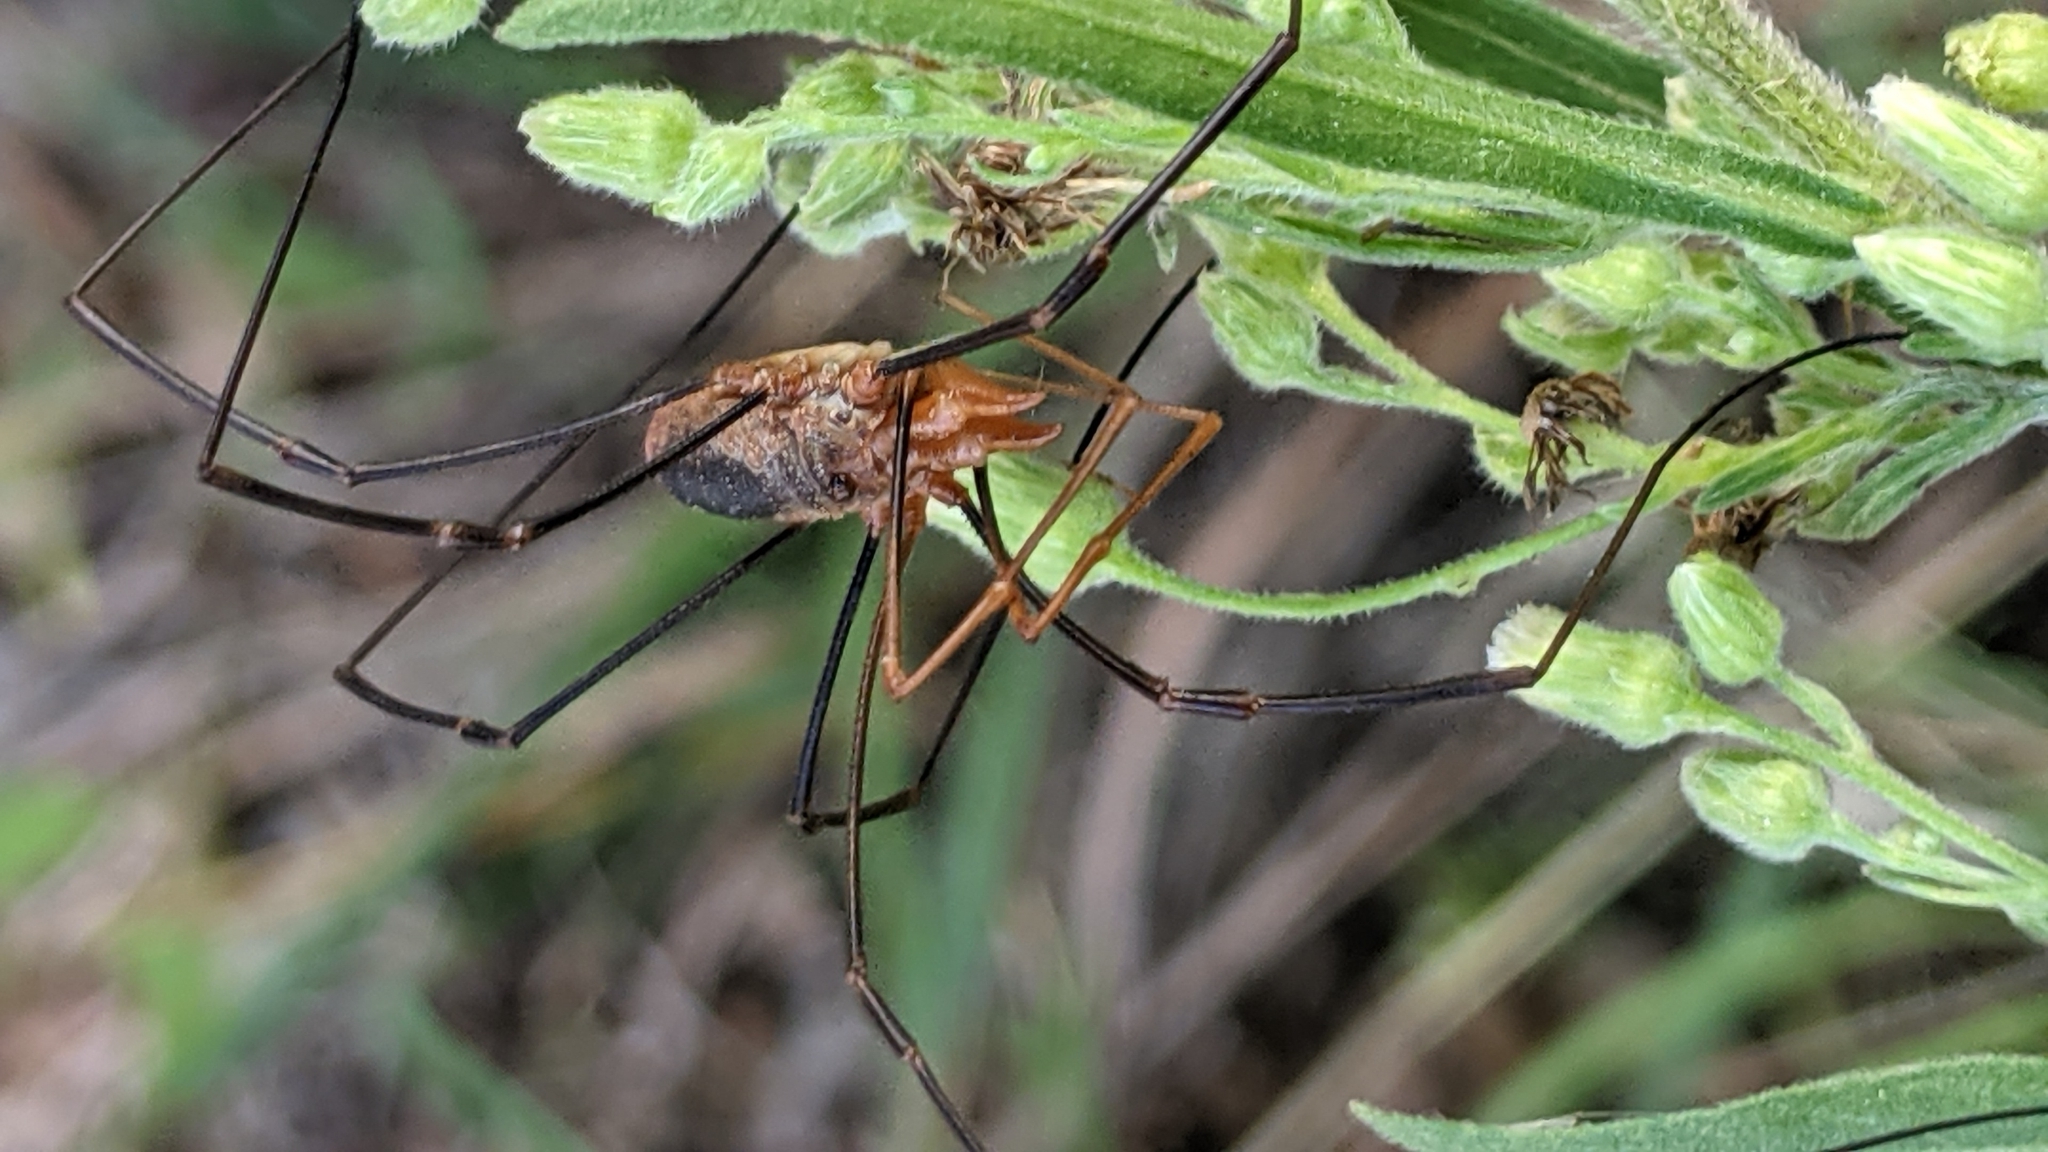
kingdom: Animalia
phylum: Arthropoda
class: Arachnida
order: Opiliones
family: Phalangiidae
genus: Phalangium
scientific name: Phalangium opilio
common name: Daddy longleg
